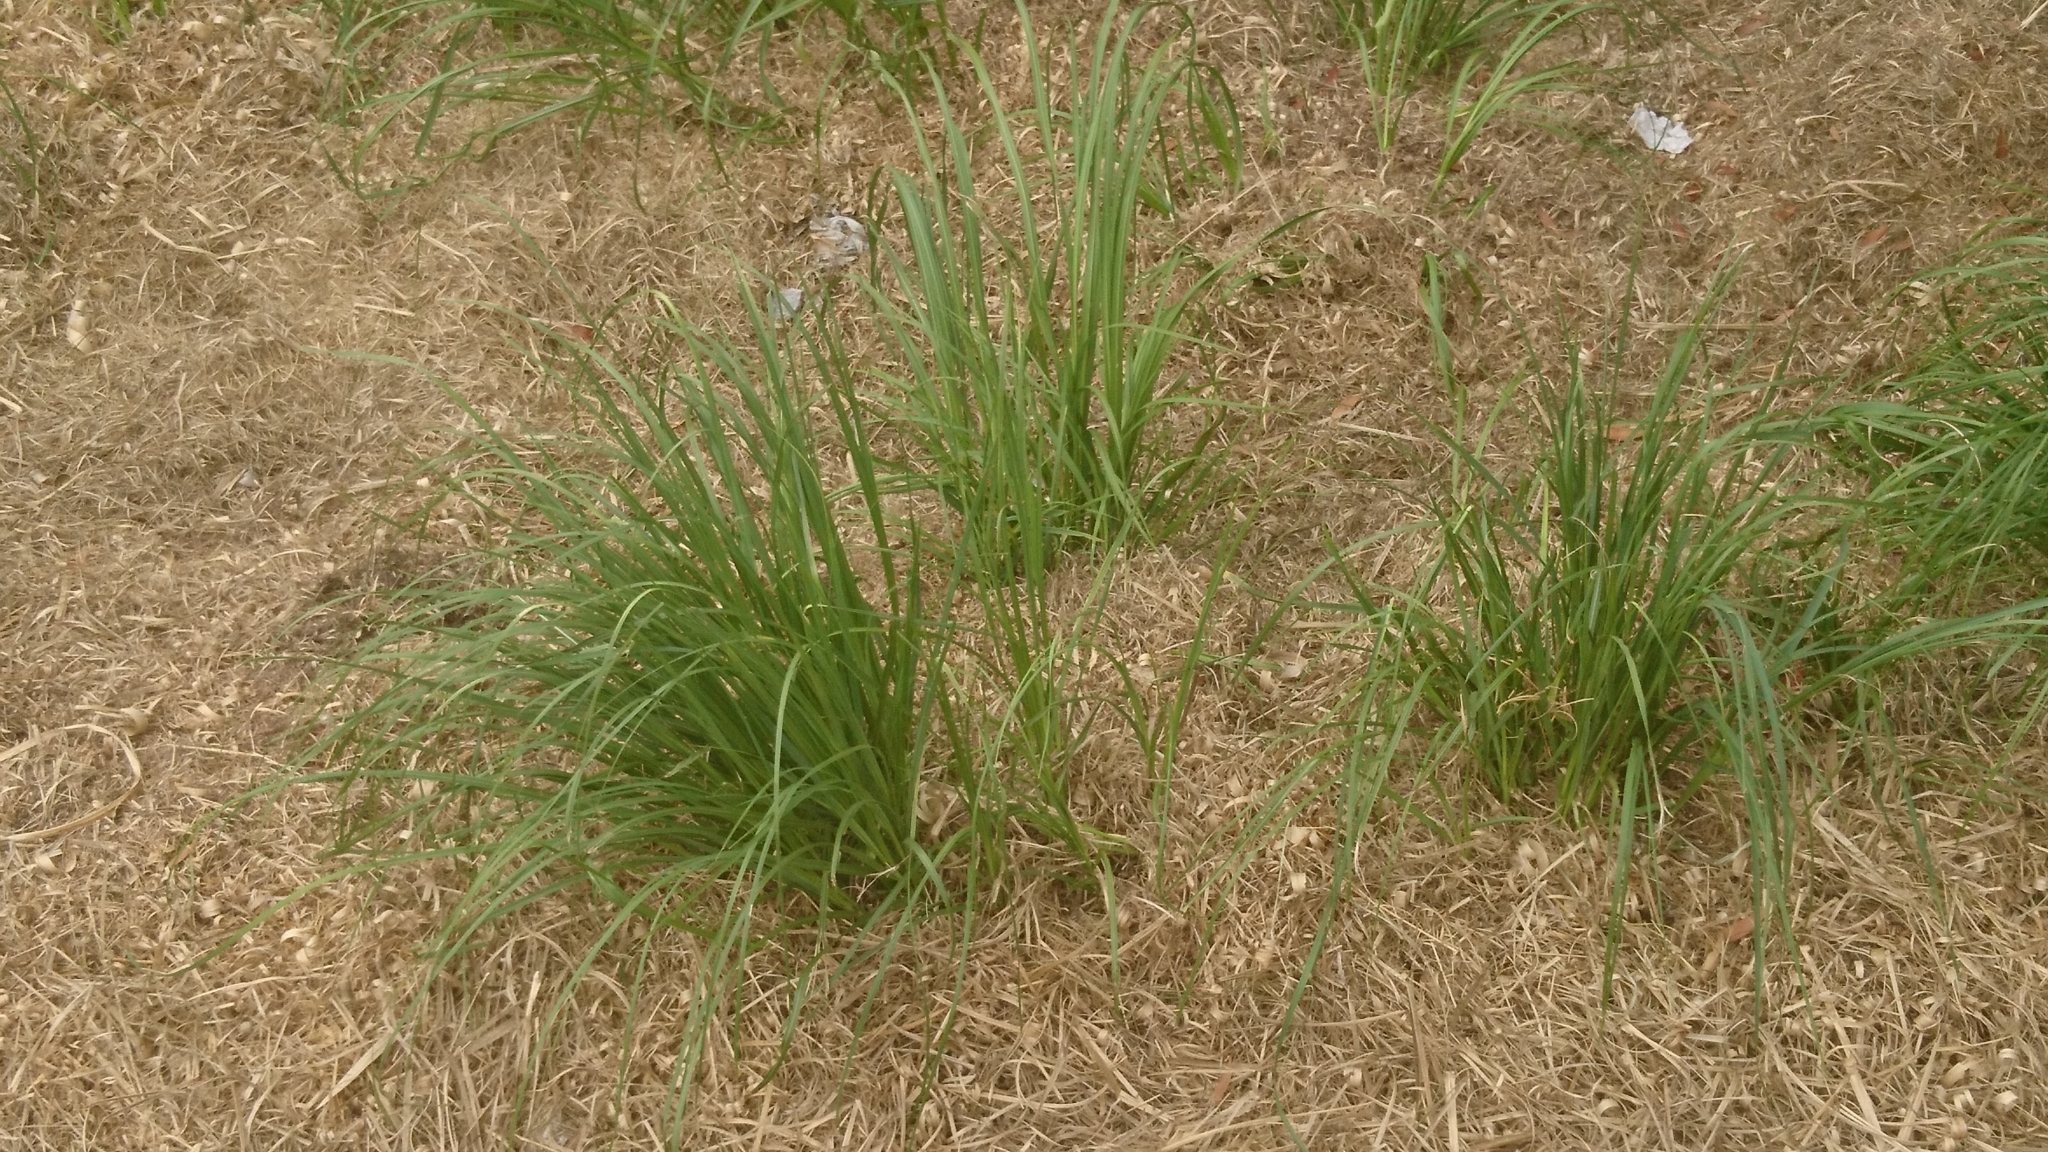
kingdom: Plantae
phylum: Tracheophyta
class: Liliopsida
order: Poales
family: Poaceae
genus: Cortaderia
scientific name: Cortaderia selloana
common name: Uruguayan pampas grass
